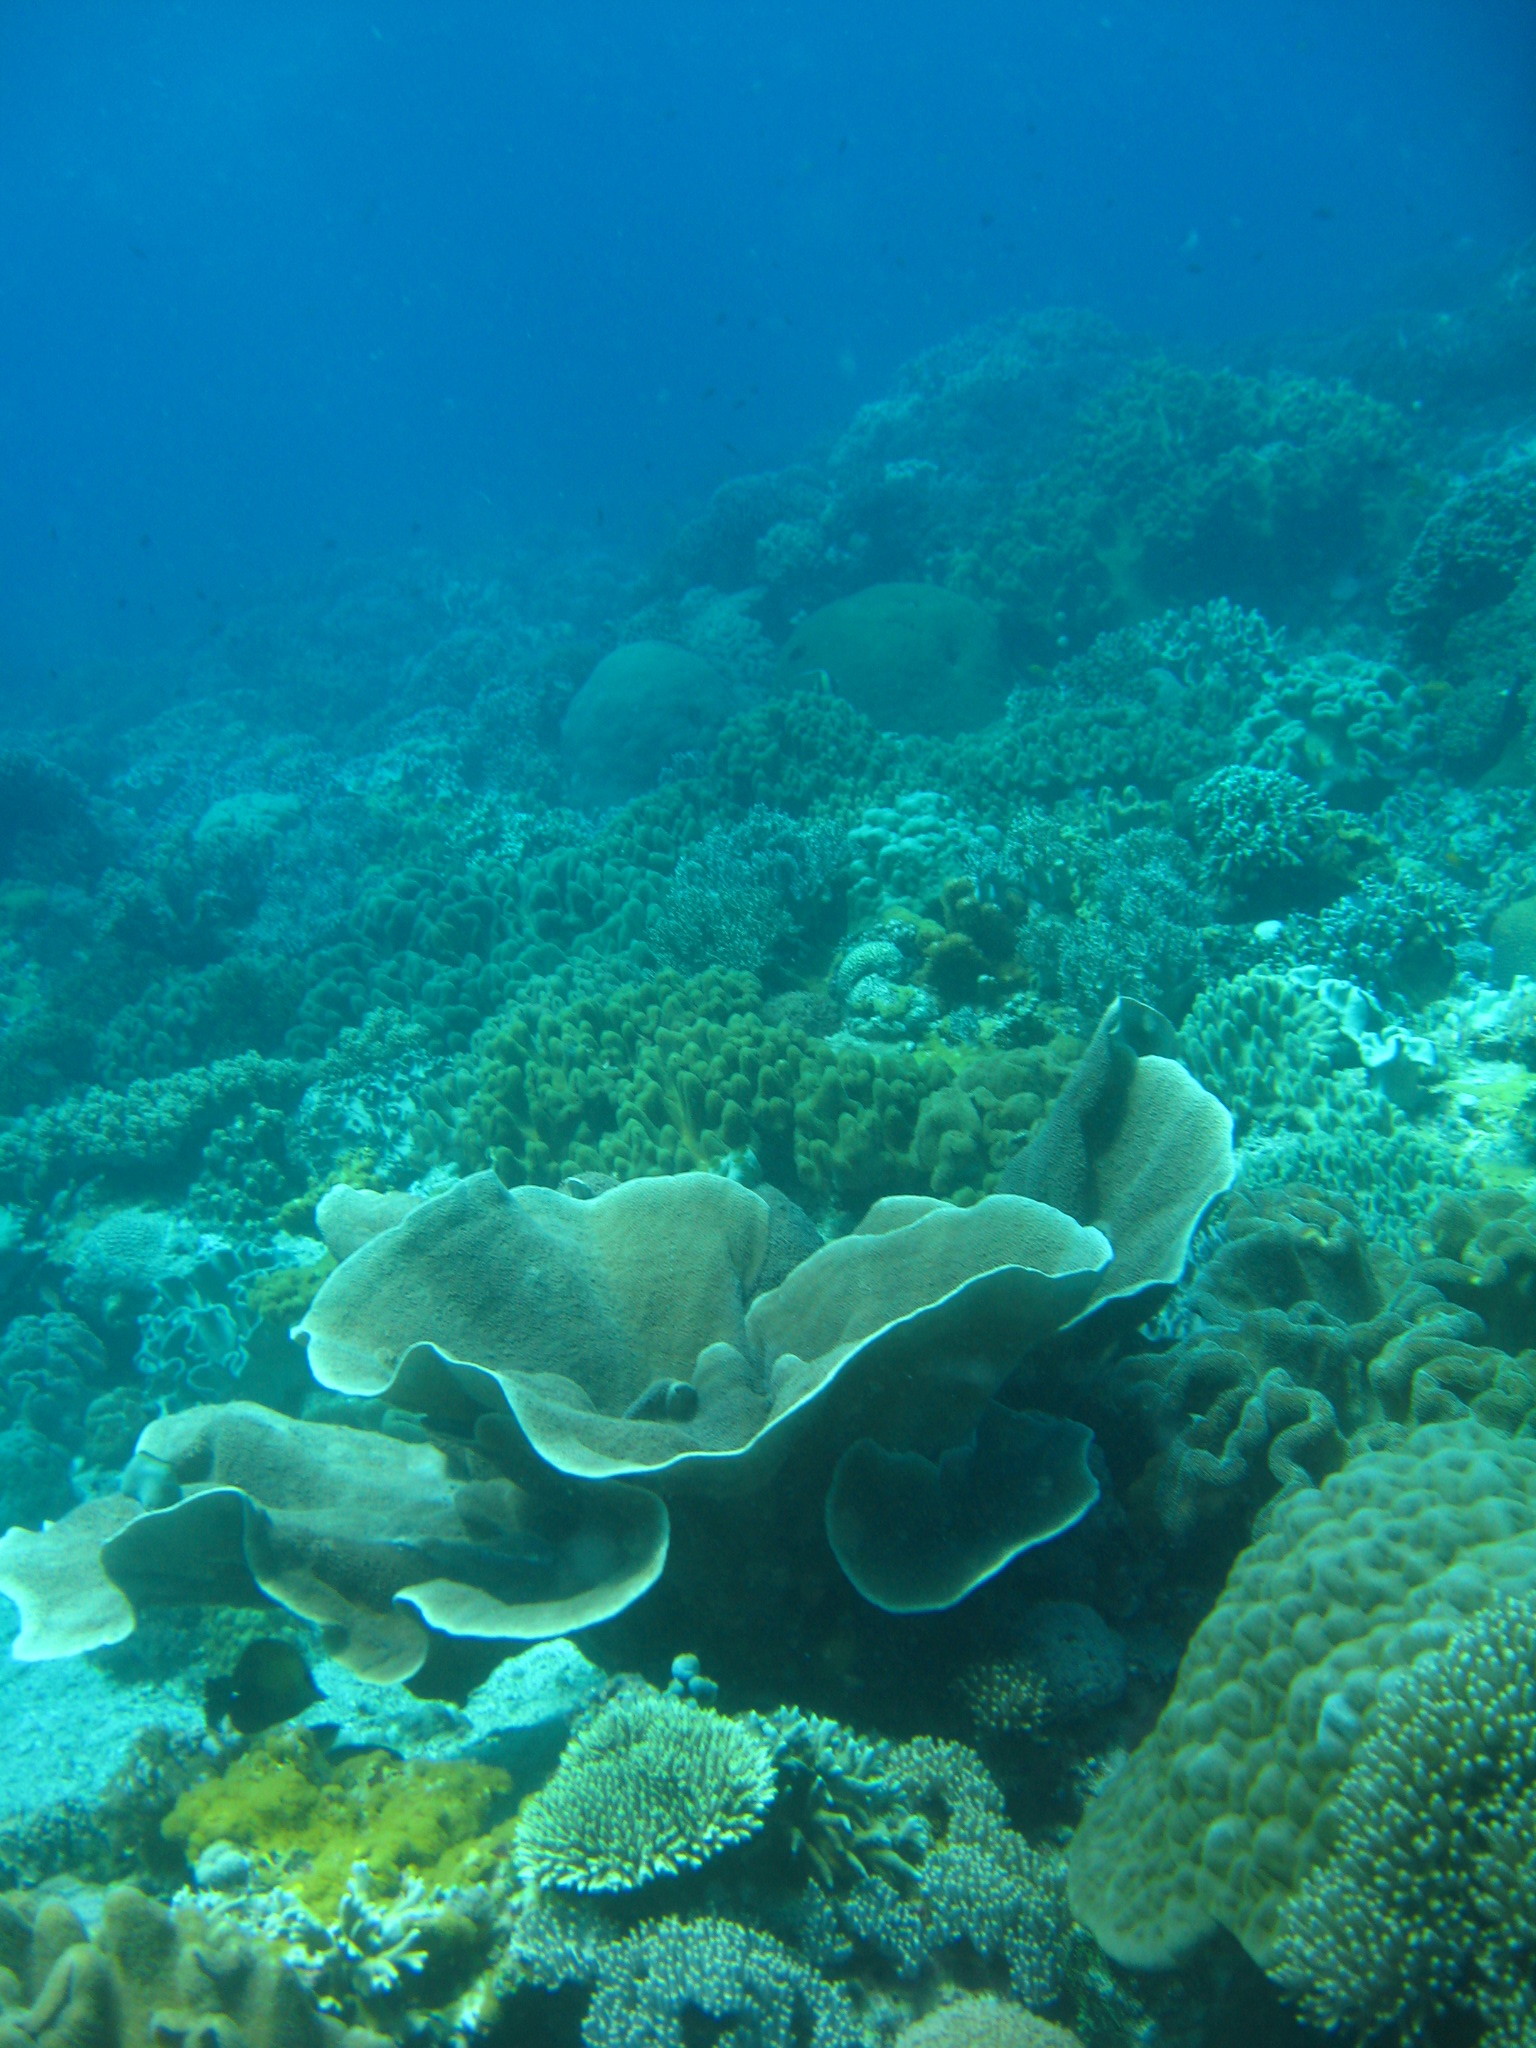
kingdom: Animalia
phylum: Cnidaria
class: Anthozoa
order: Scleractinia
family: Dendrophylliidae
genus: Turbinaria
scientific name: Turbinaria mesenterina
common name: Disc coral
